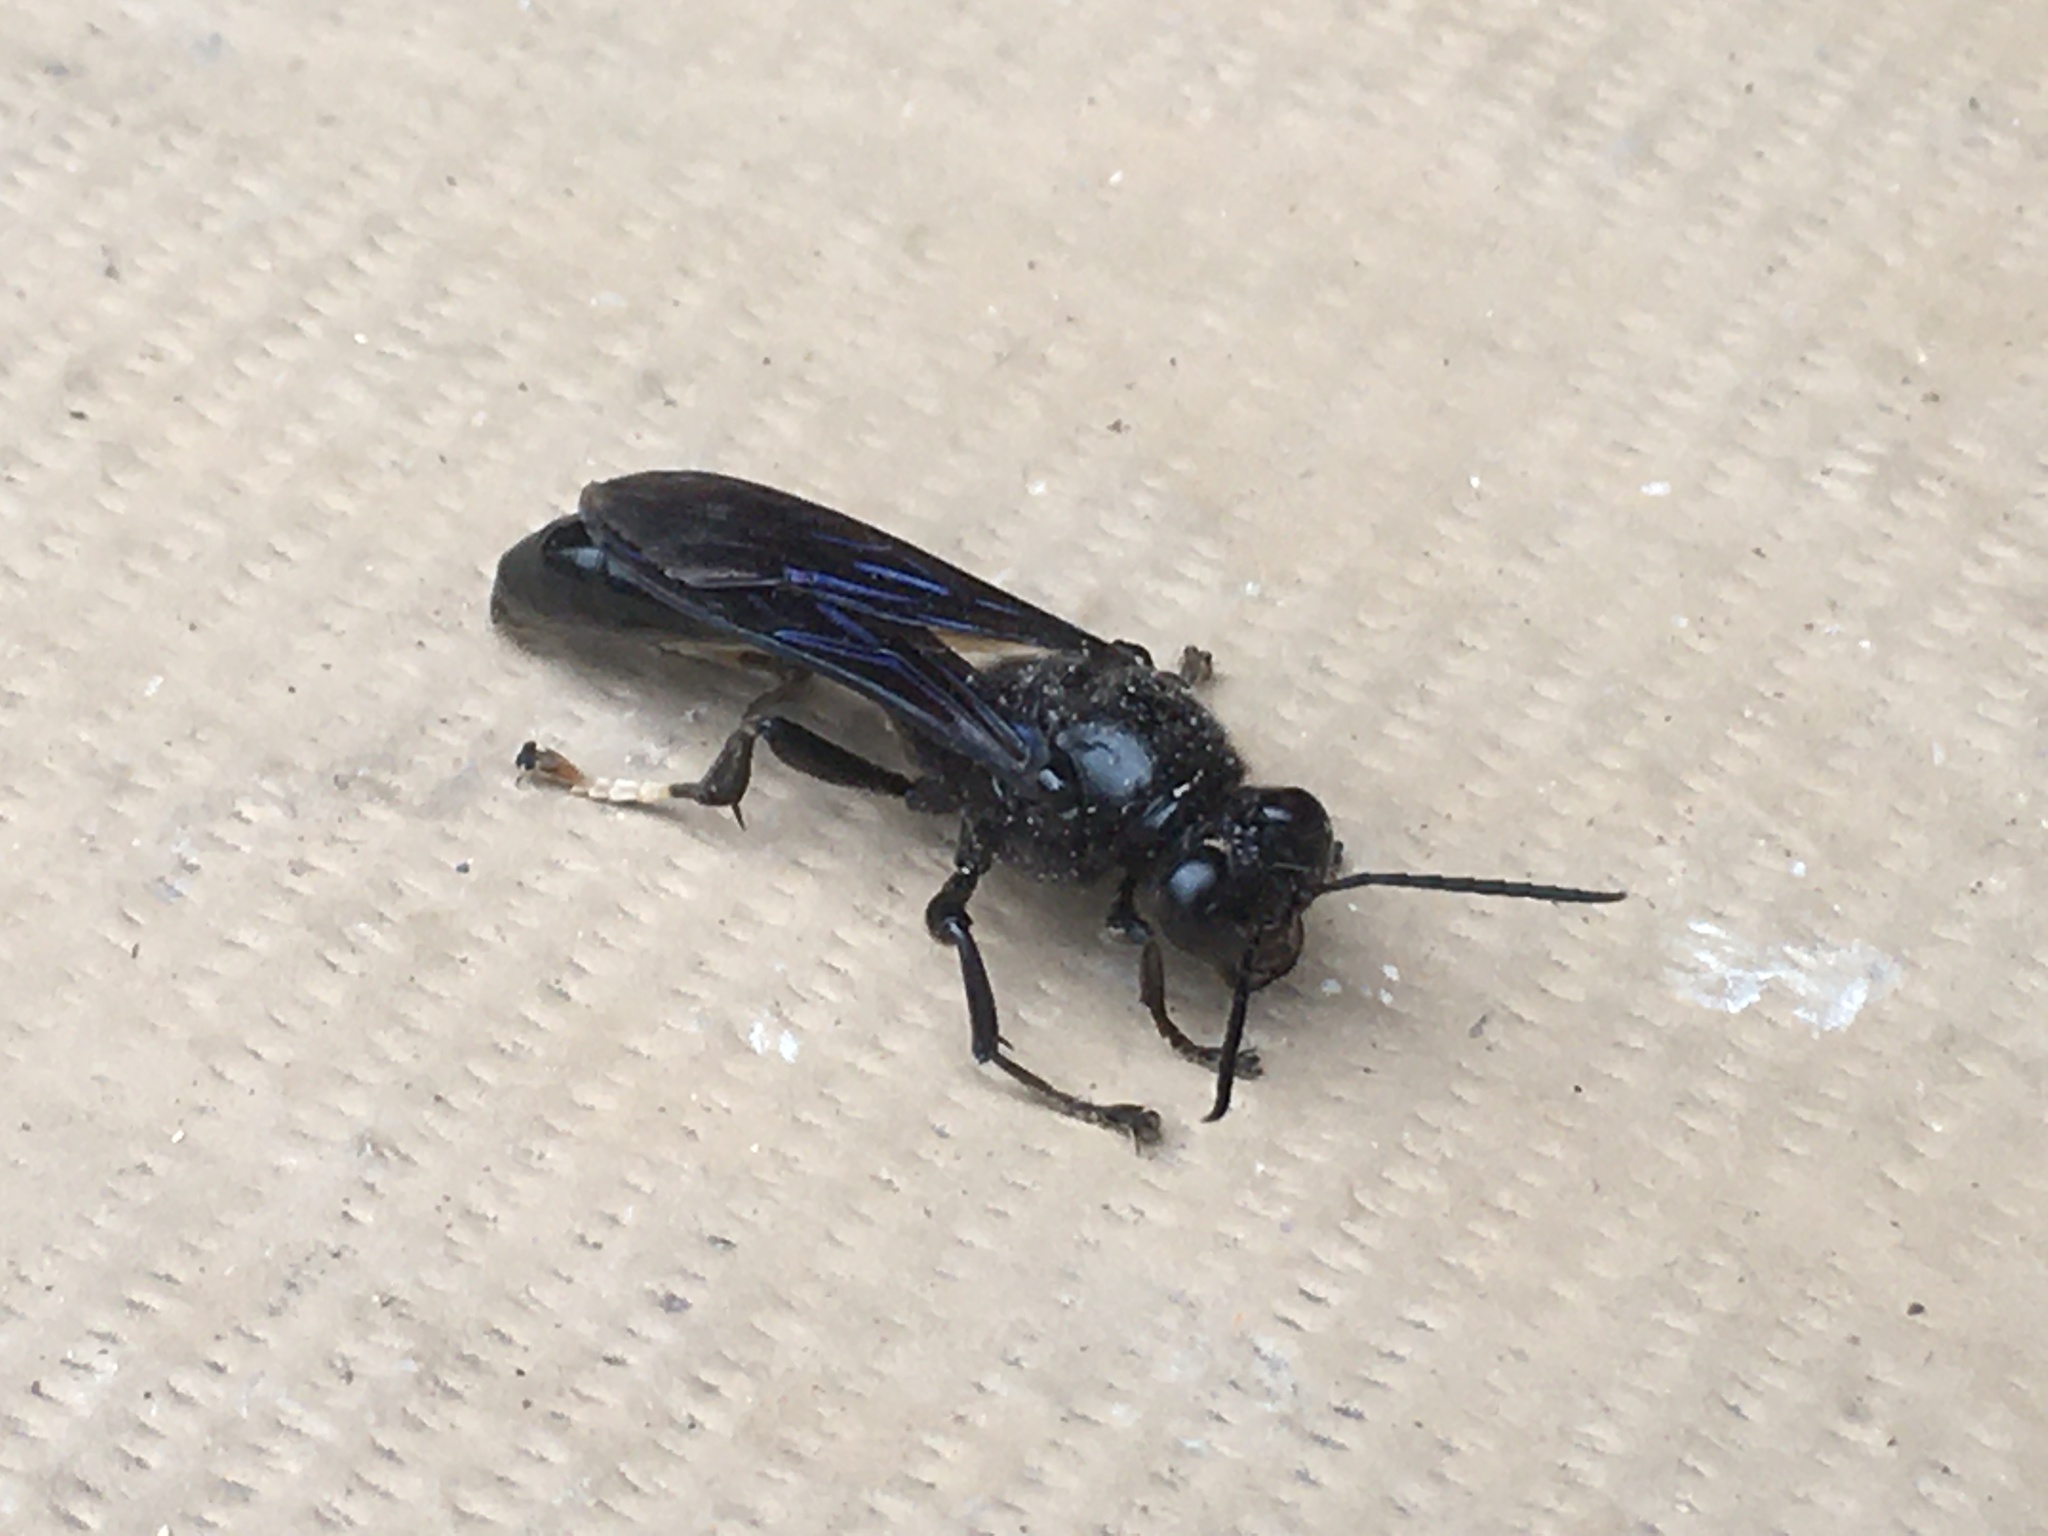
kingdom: Animalia
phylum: Arthropoda
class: Insecta
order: Hymenoptera
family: Crabronidae
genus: Trypoxylon
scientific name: Trypoxylon politum
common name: Organ-pipe mud-dauber wasp
